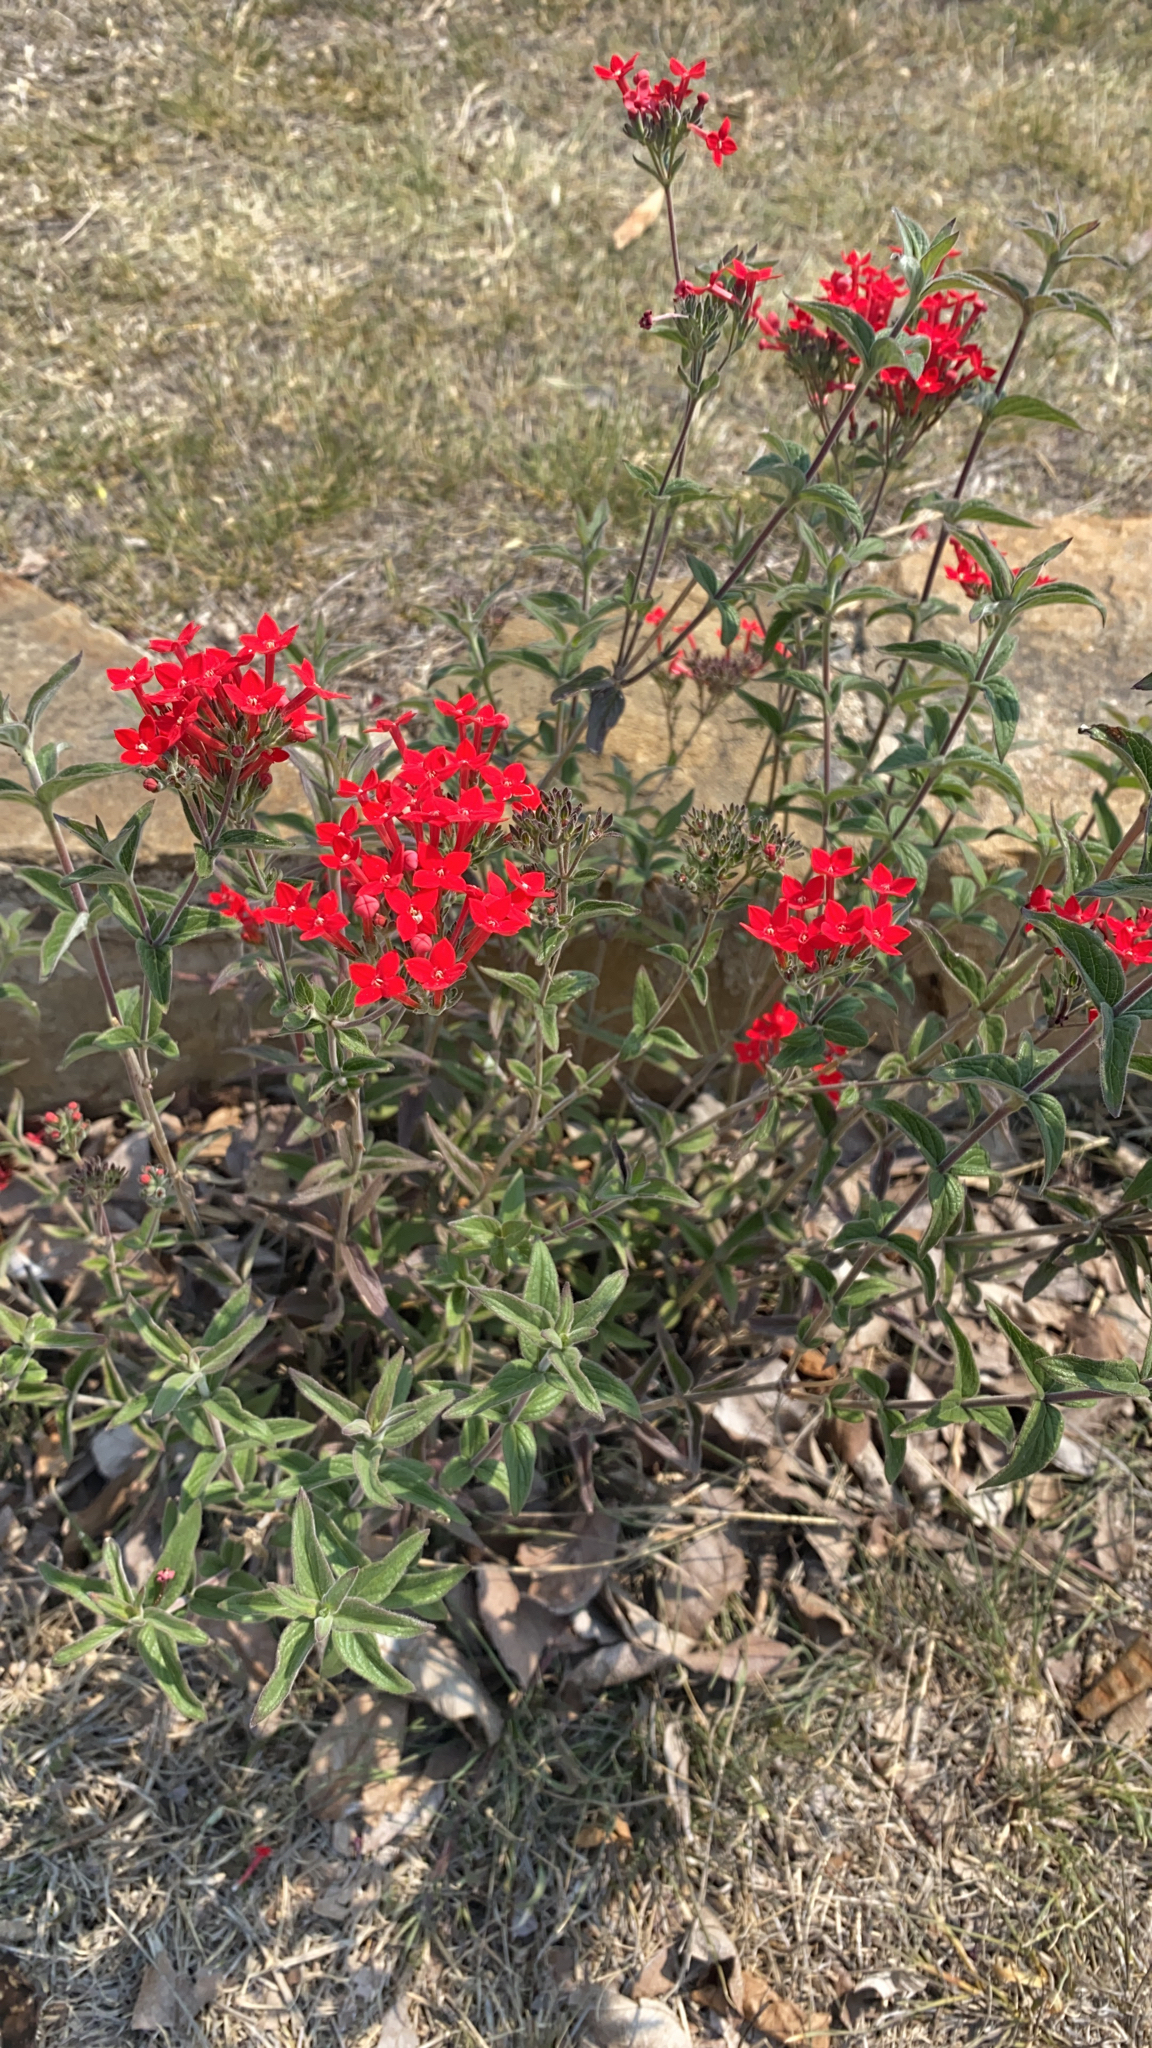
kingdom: Plantae
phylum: Tracheophyta
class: Magnoliopsida
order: Gentianales
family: Rubiaceae
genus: Bouvardia
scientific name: Bouvardia ternifolia
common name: Scarlet bouvardia
